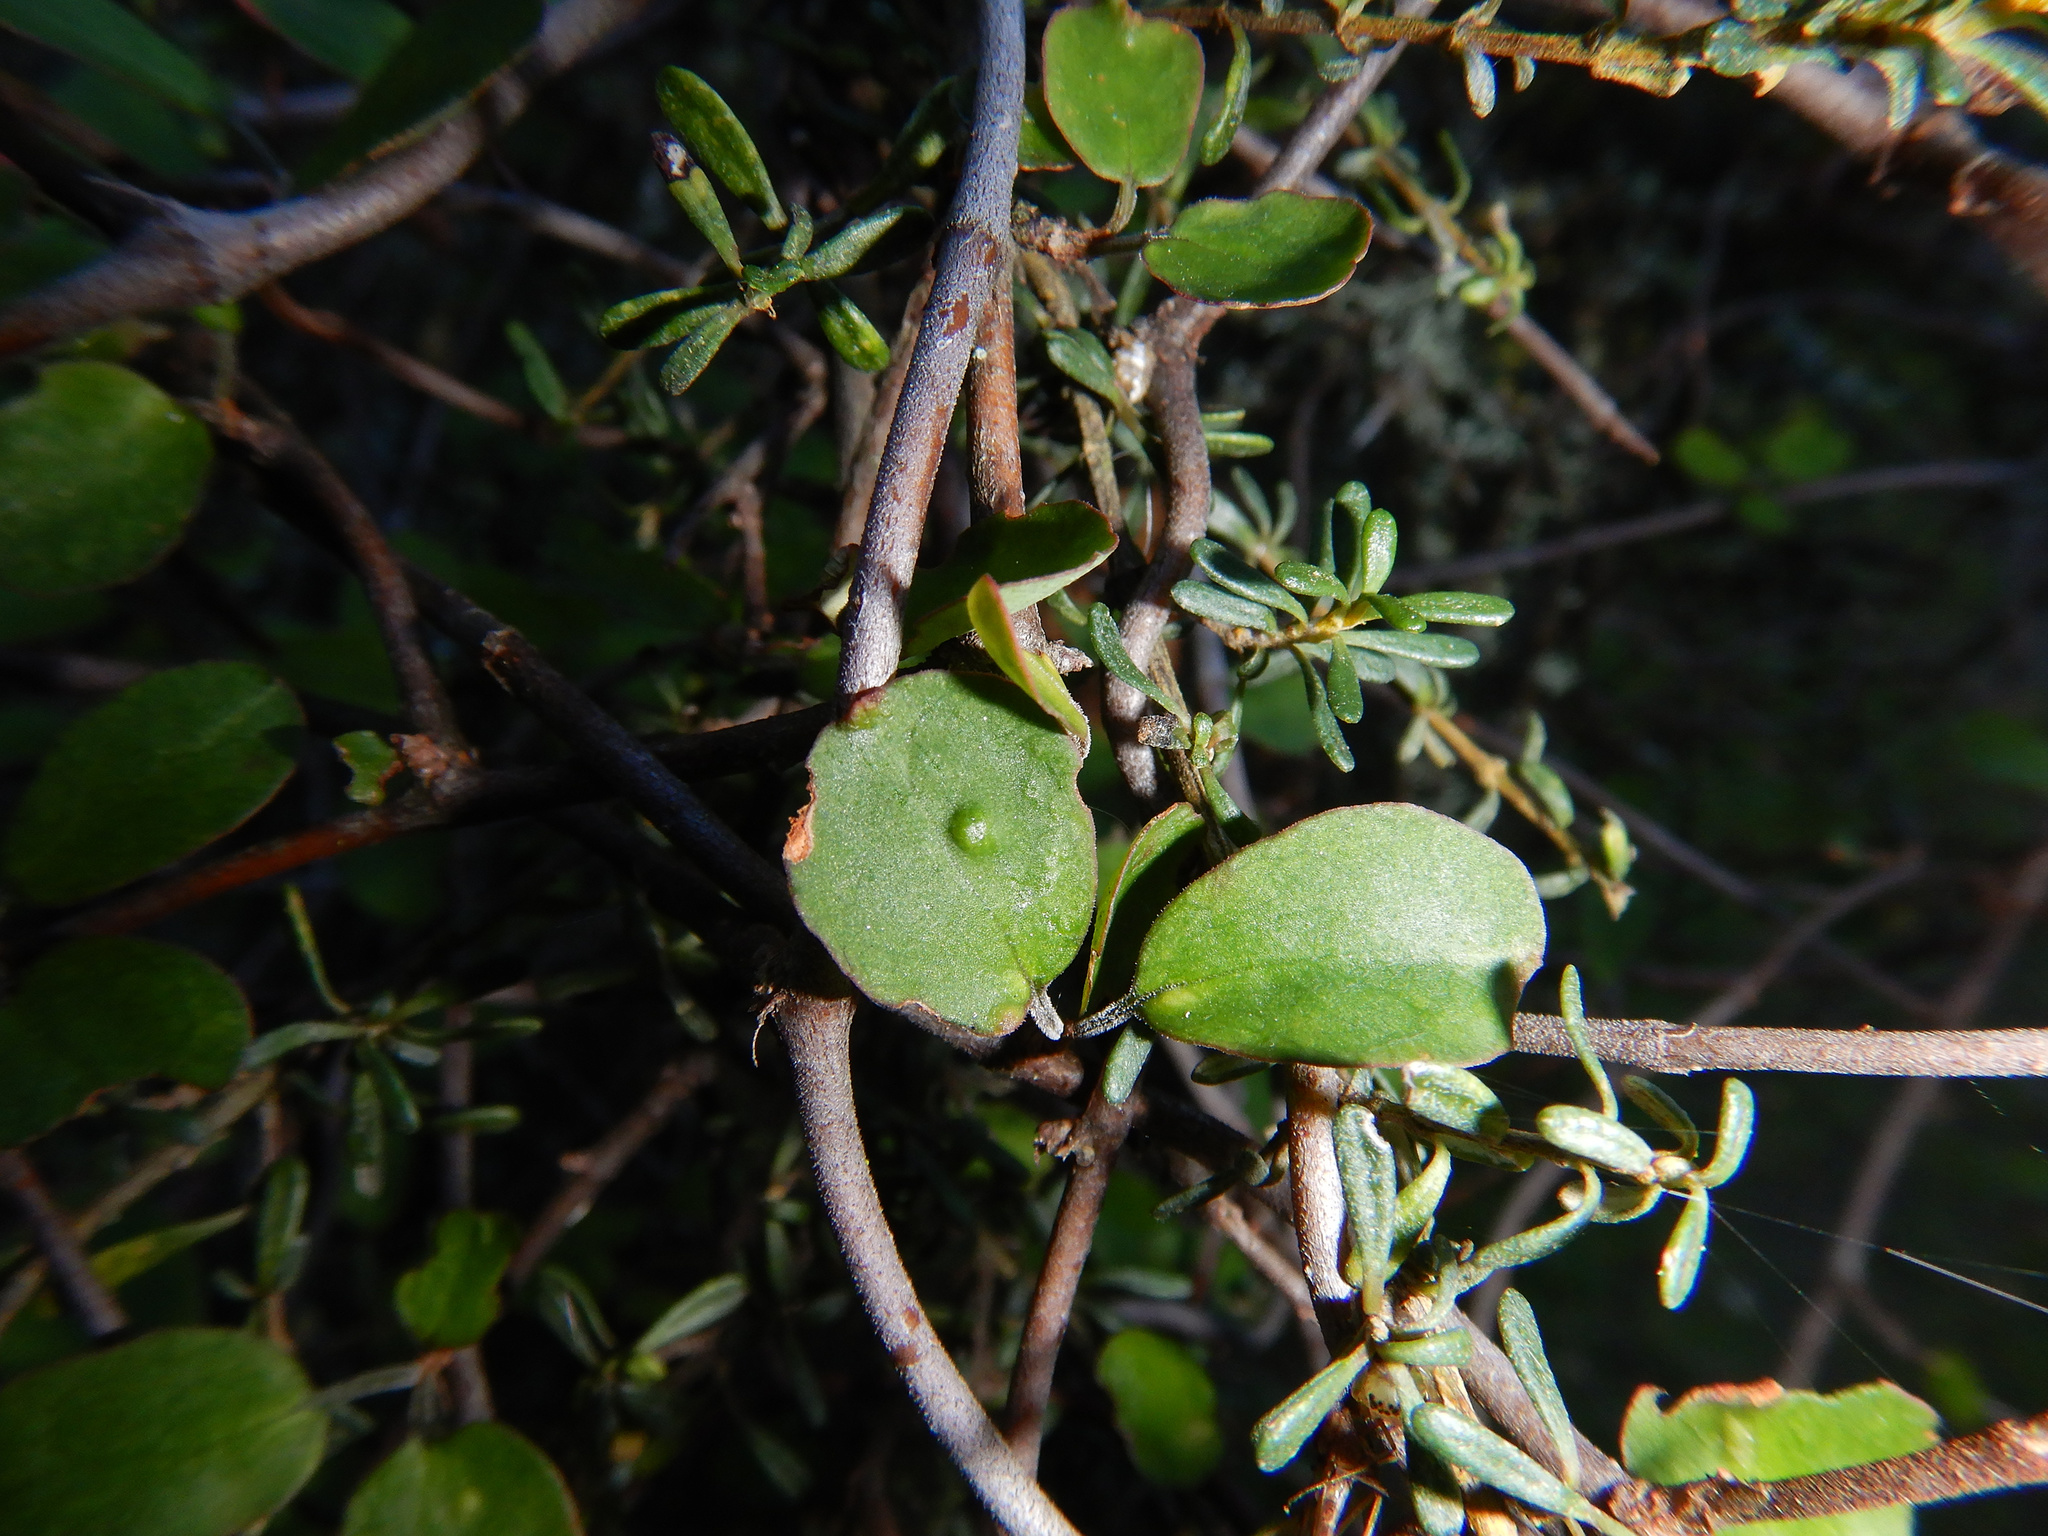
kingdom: Animalia
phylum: Arthropoda
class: Arachnida
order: Trombidiformes
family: Eriophyidae
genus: Aceria
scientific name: Aceria lamii
